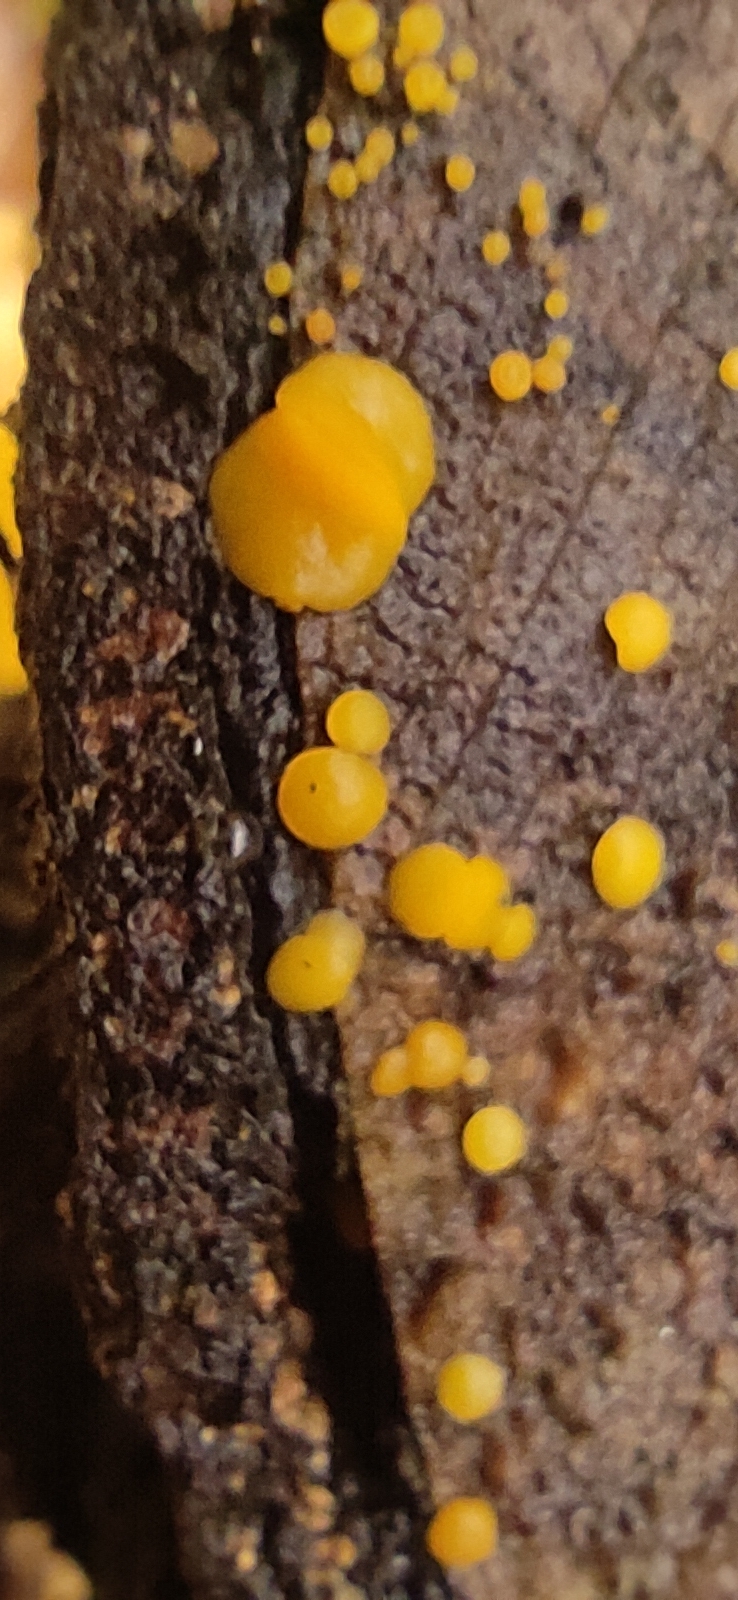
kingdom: Fungi
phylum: Ascomycota
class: Leotiomycetes
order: Helotiales
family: Pezizellaceae
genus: Calycina
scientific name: Calycina citrina
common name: Yellow fairy cups
